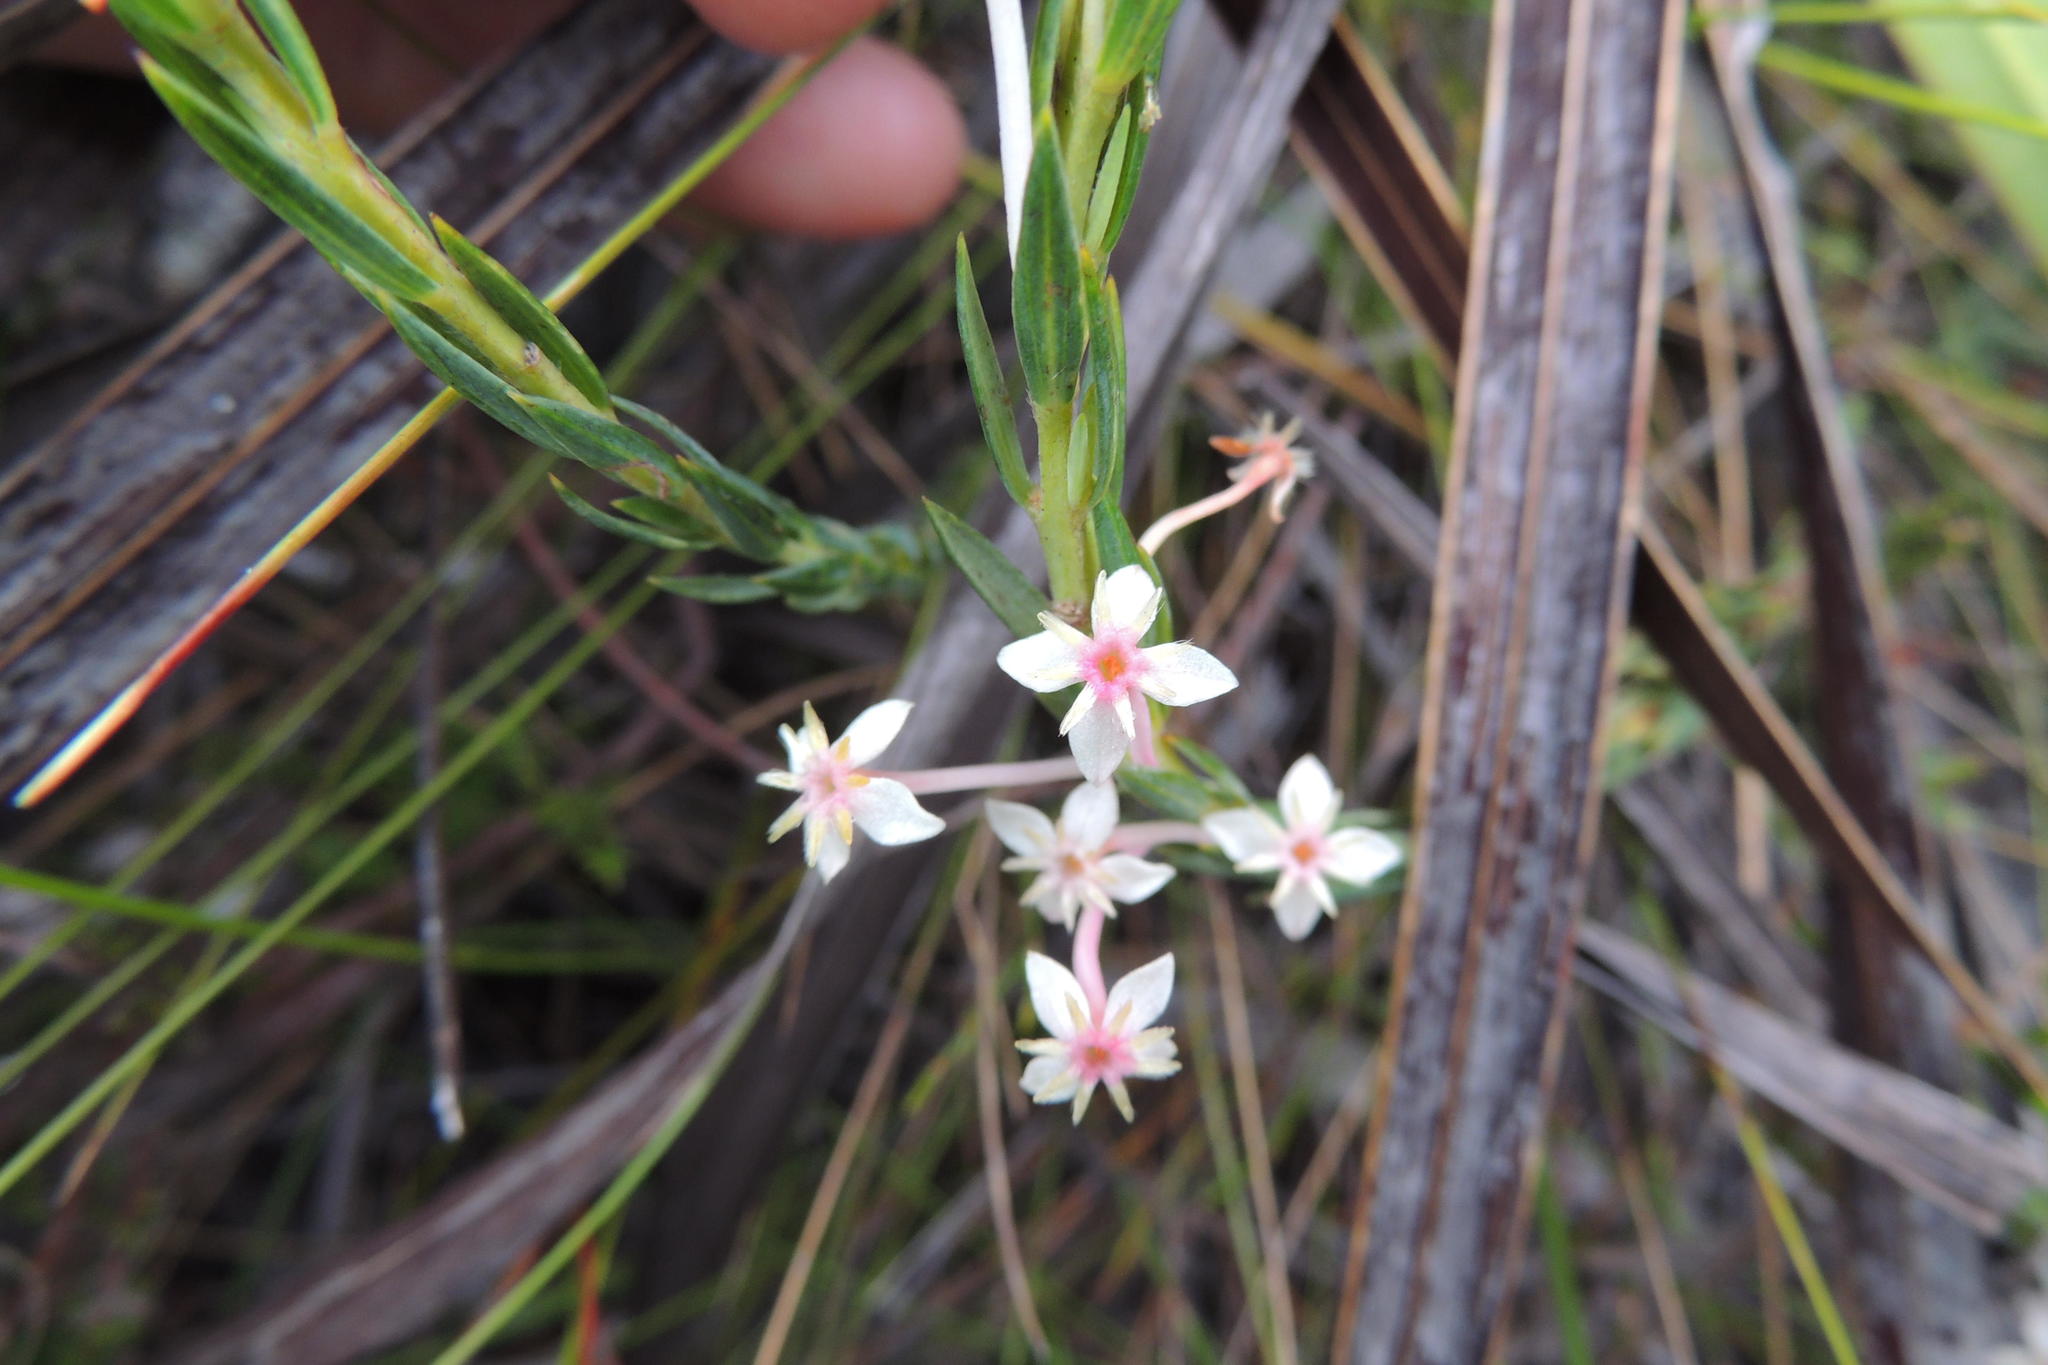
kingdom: Plantae
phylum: Tracheophyta
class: Magnoliopsida
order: Malvales
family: Thymelaeaceae
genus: Struthiola
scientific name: Struthiola myrsinites
